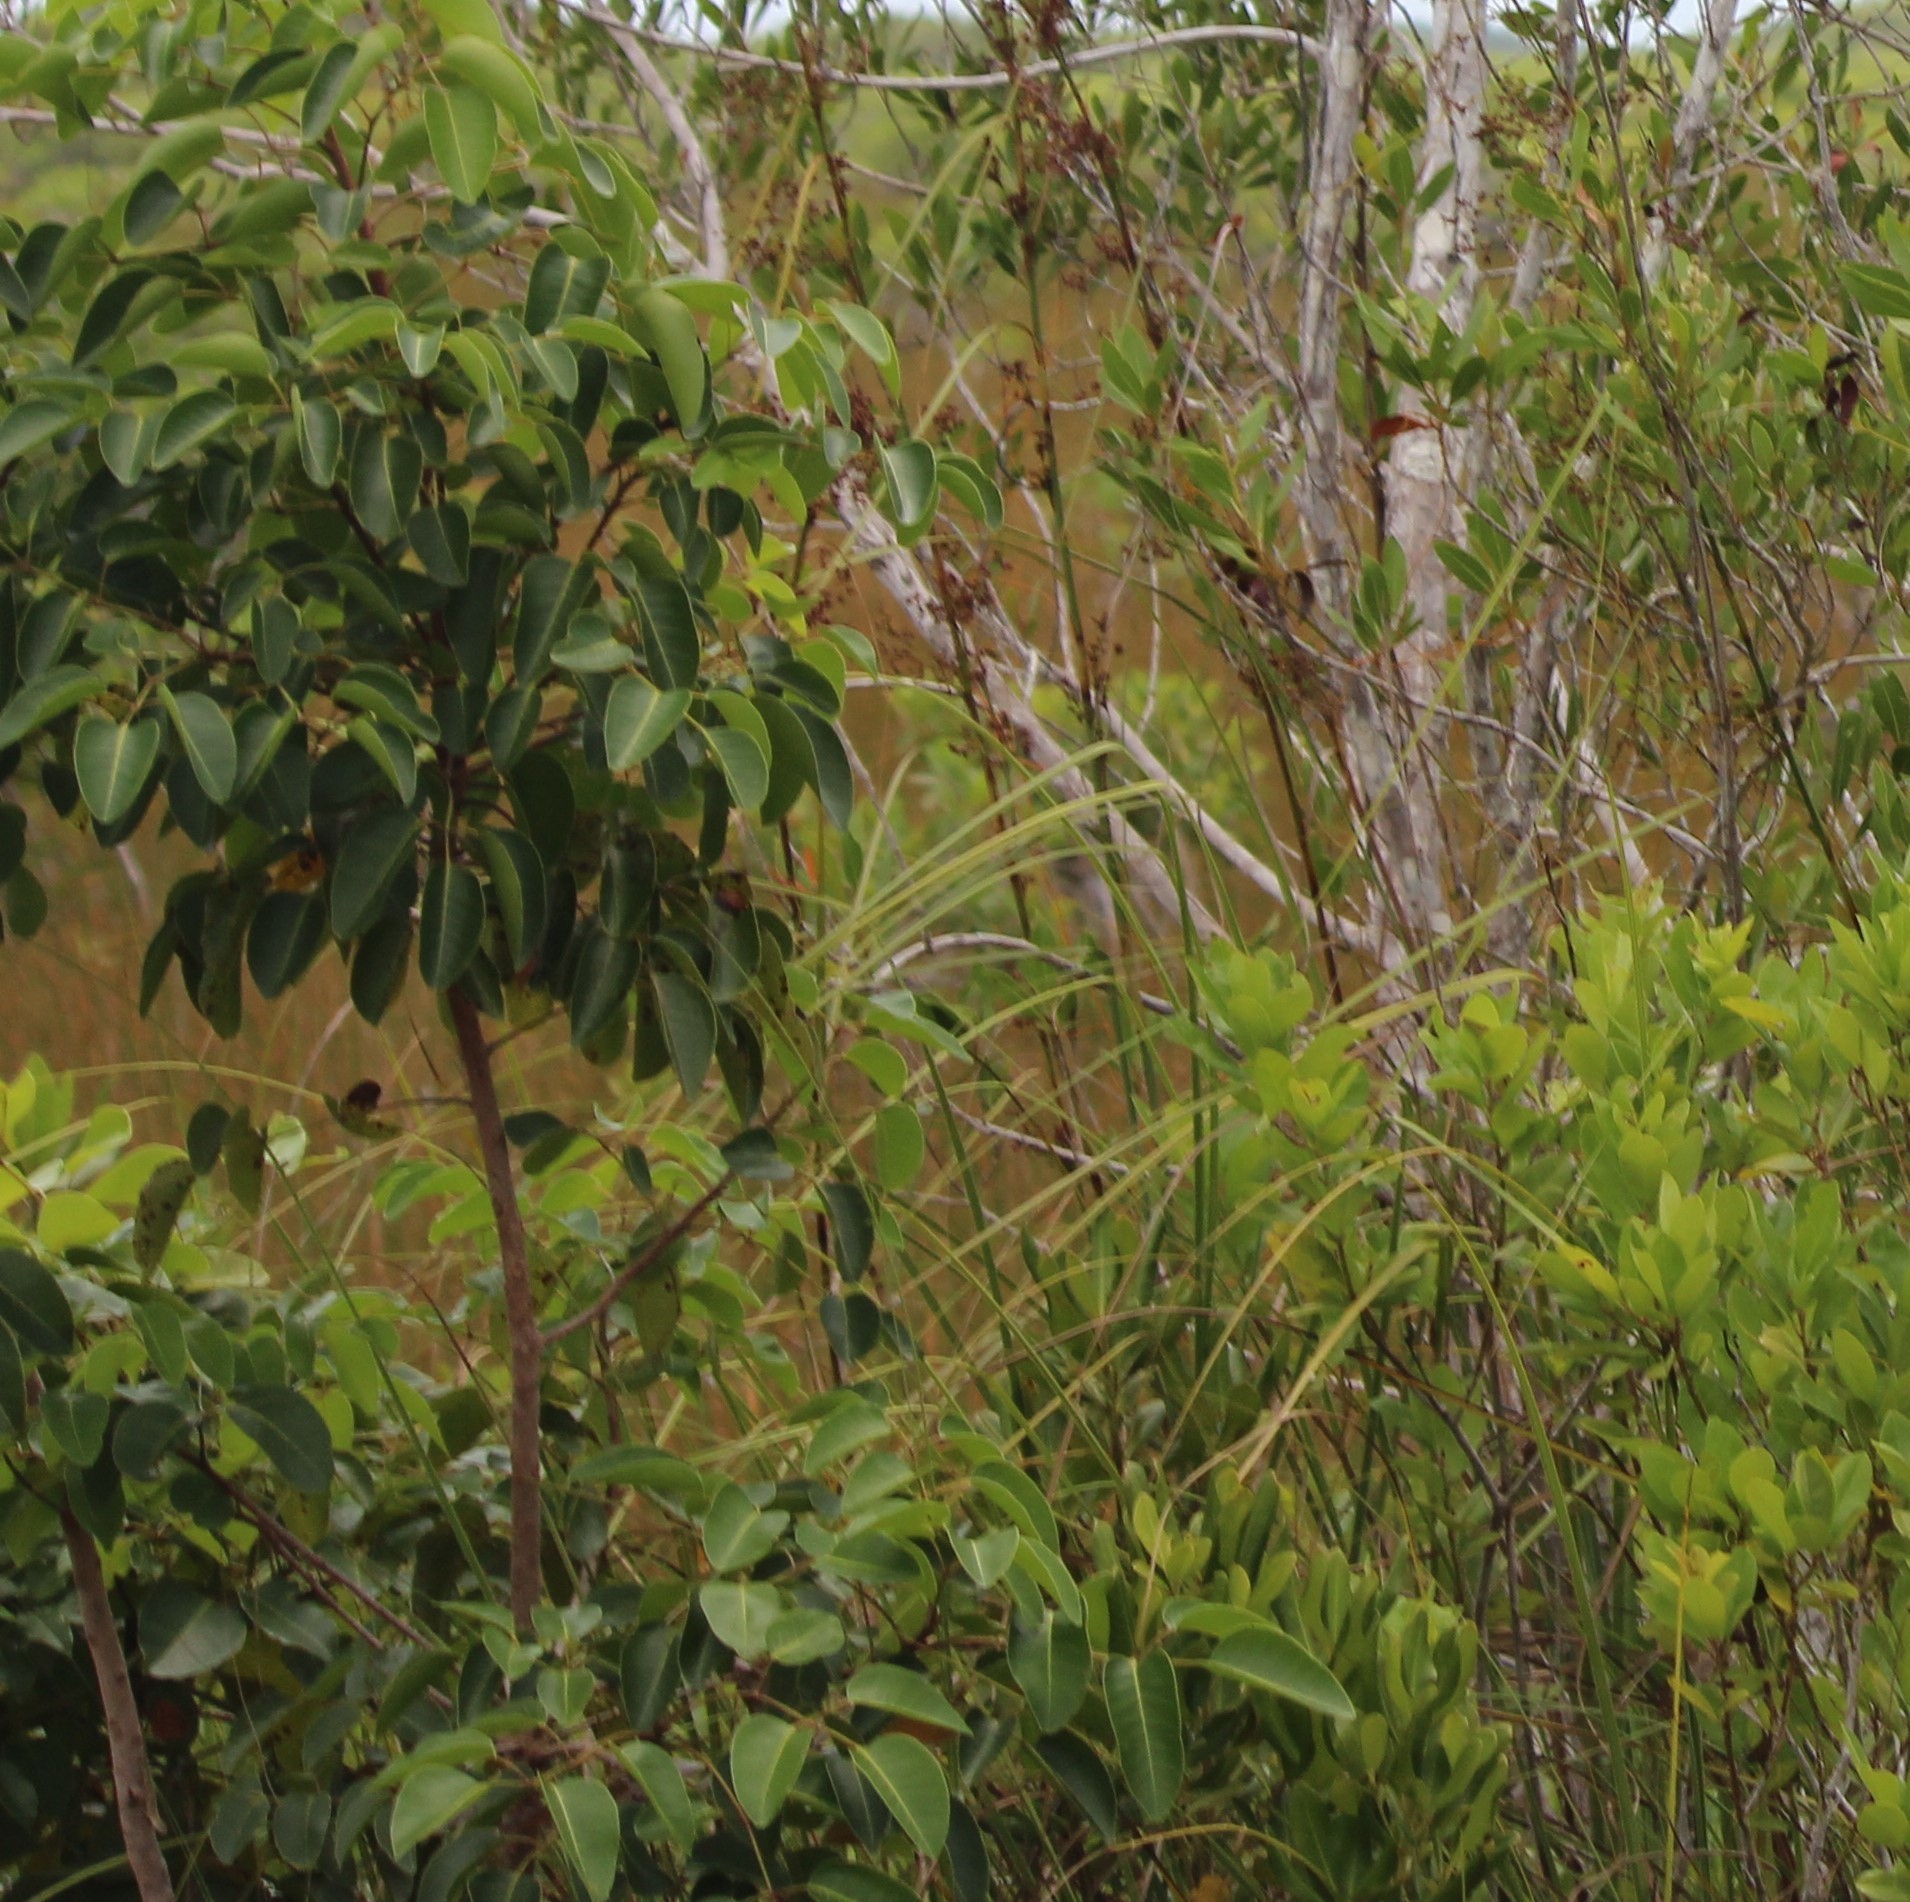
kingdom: Plantae
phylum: Tracheophyta
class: Magnoliopsida
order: Sapindales
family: Anacardiaceae
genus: Metopium
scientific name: Metopium toxiferum
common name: Florida poisontree
